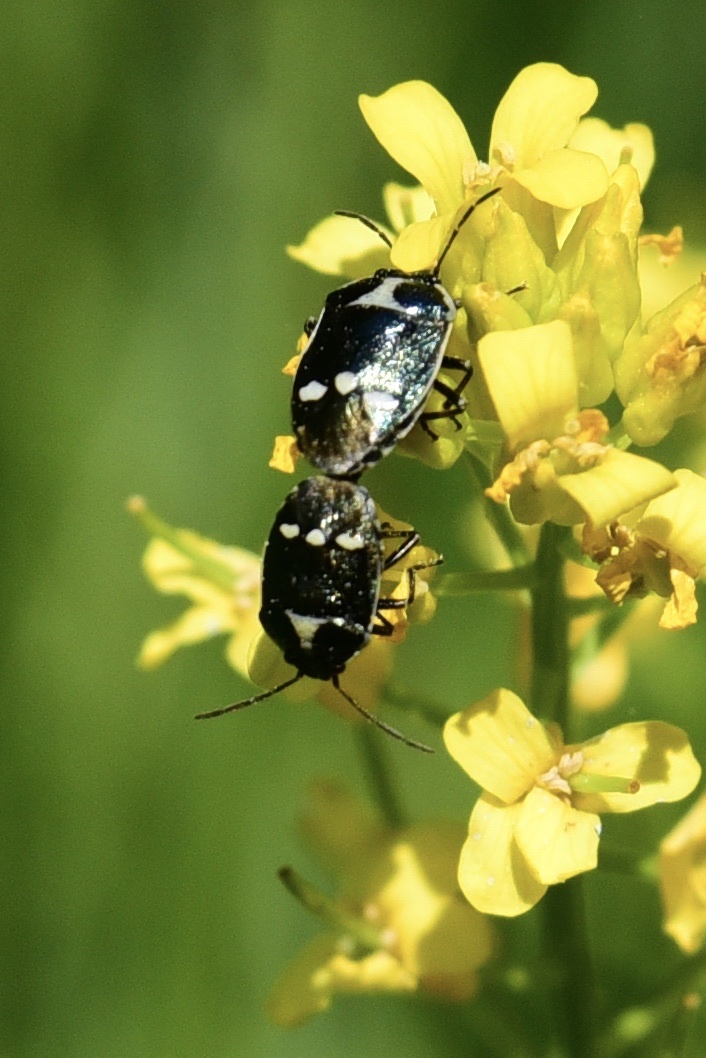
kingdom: Animalia
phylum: Arthropoda
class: Insecta
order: Hemiptera
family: Pentatomidae
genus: Eurydema
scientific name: Eurydema oleracea
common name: Cabbage bug
